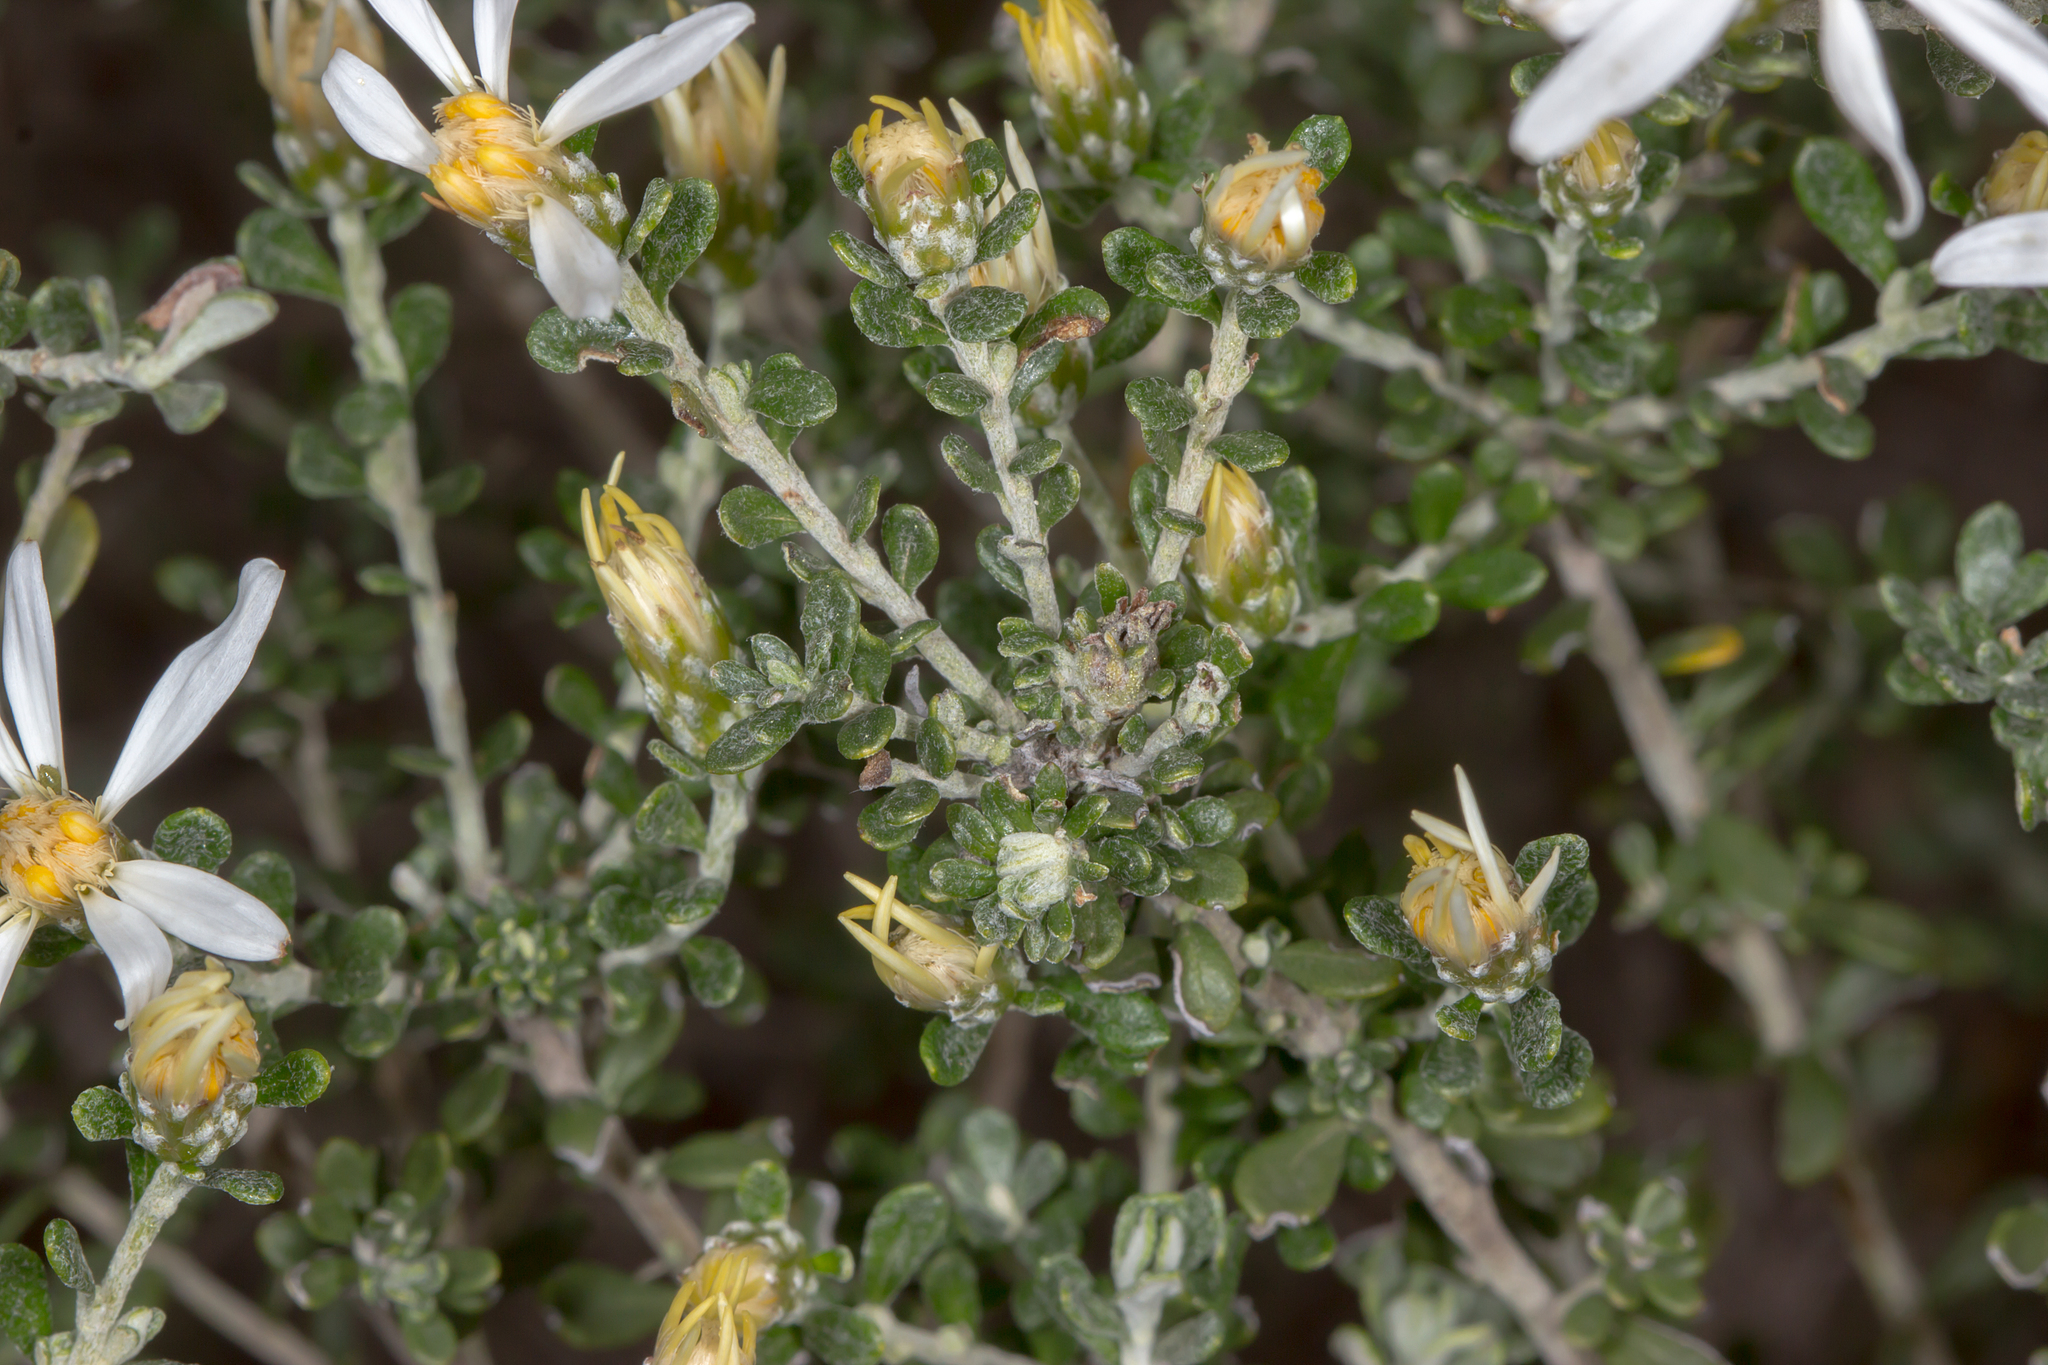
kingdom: Plantae
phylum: Tracheophyta
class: Magnoliopsida
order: Asterales
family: Asteraceae
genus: Olearia
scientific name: Olearia pimeleoides
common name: Showy daisybush
